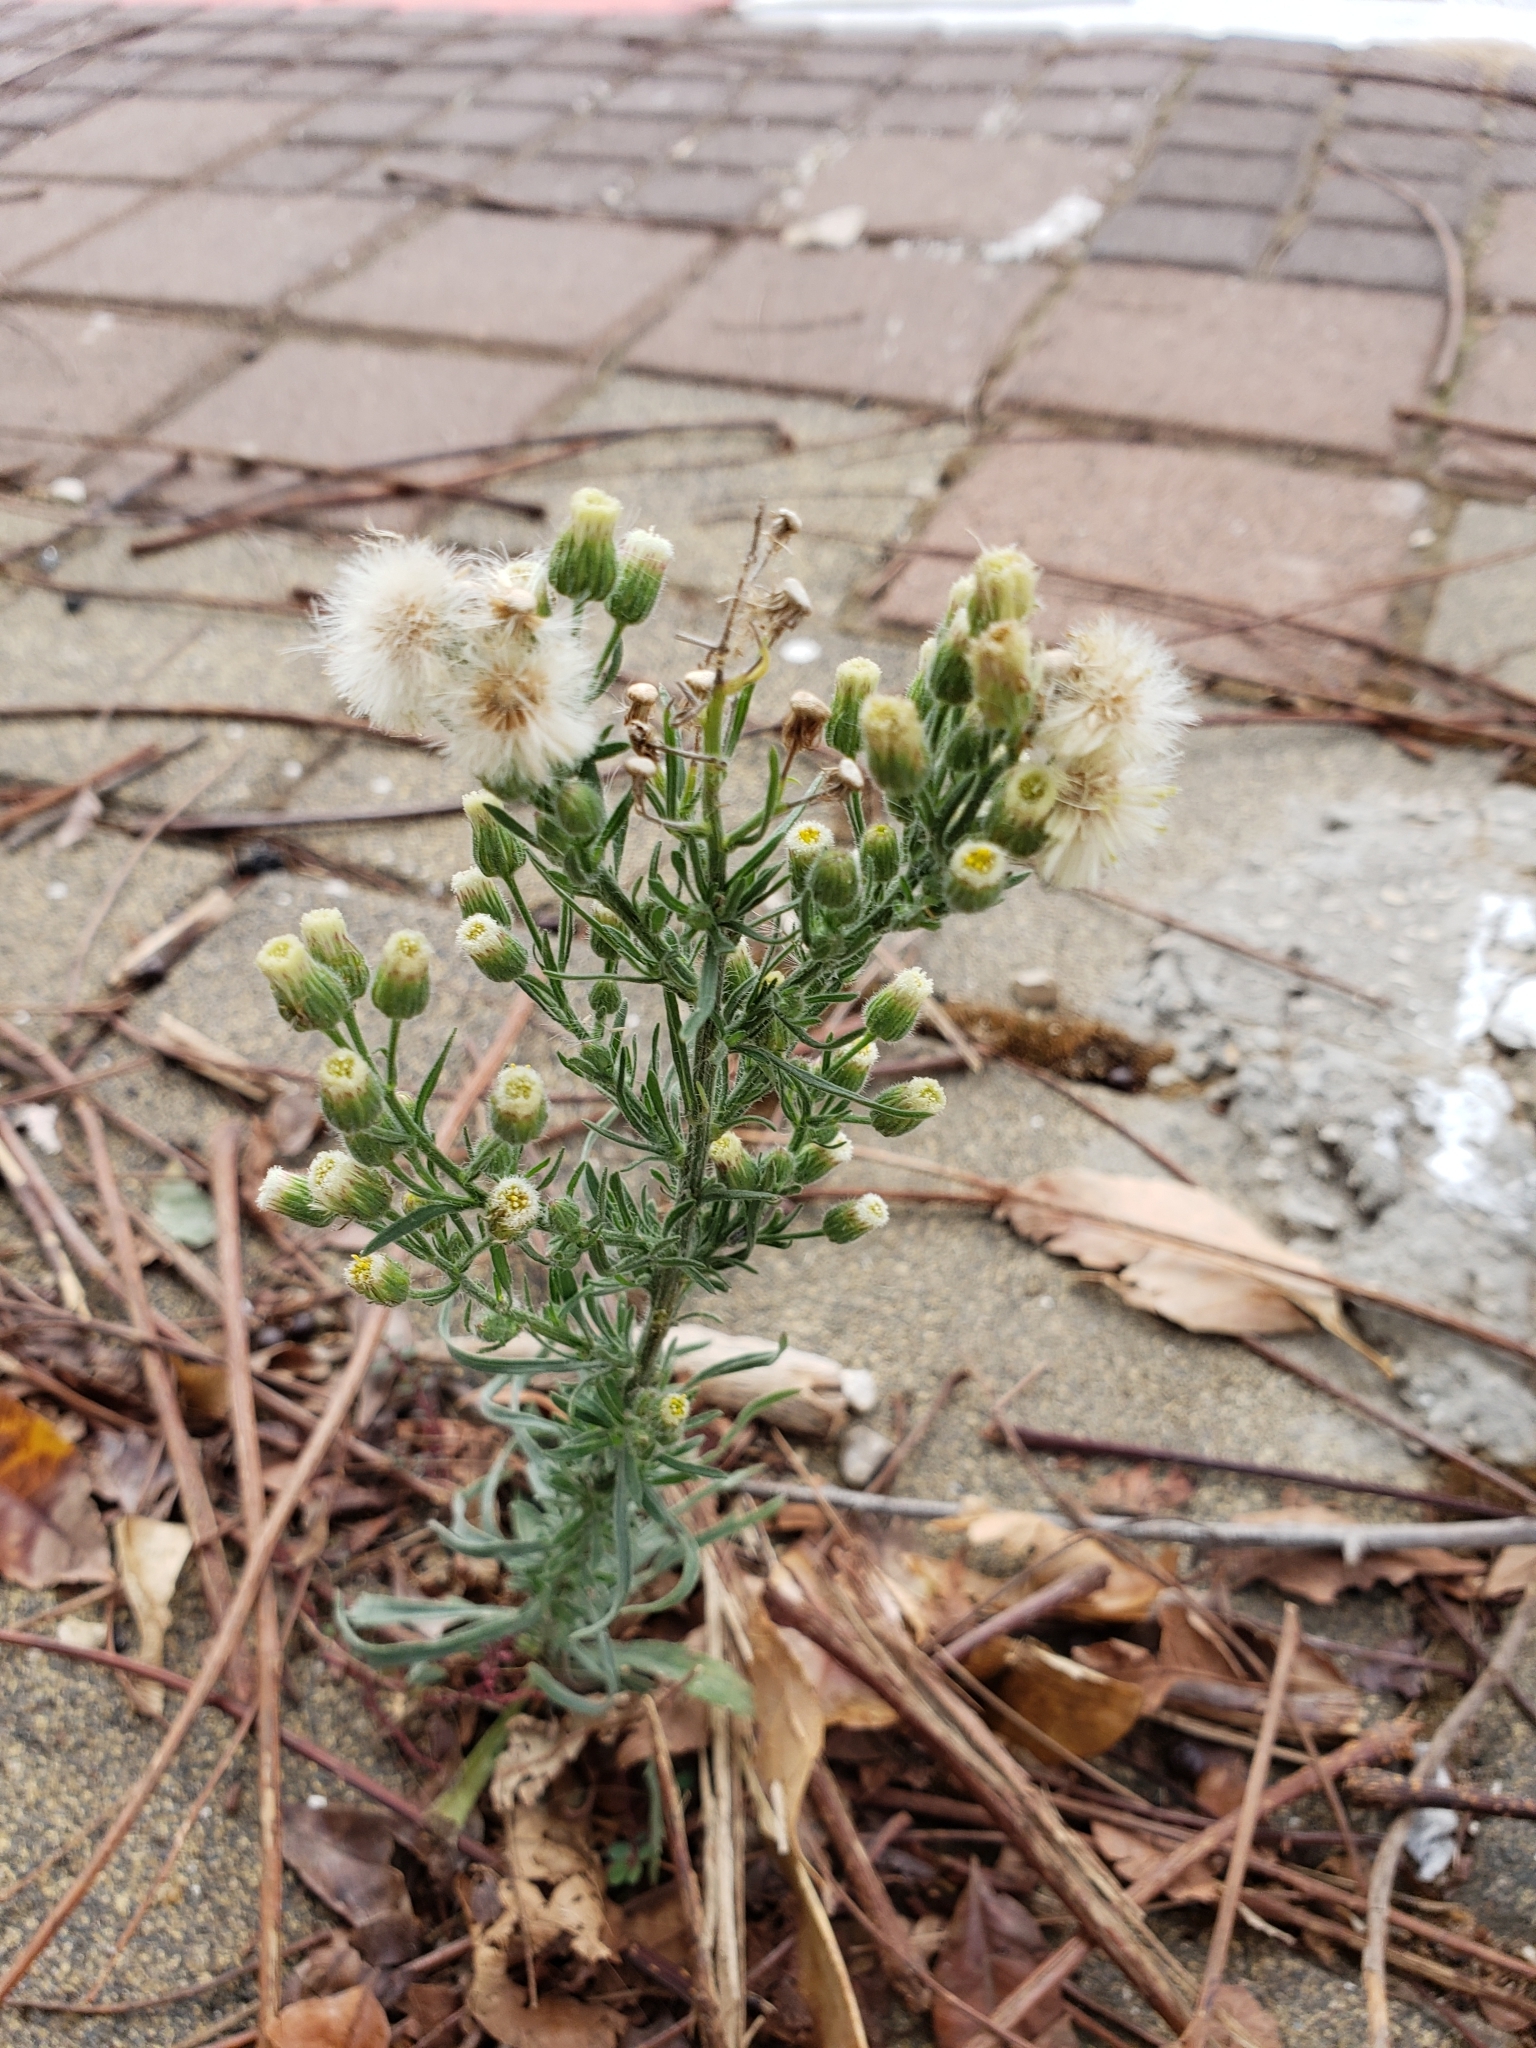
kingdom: Plantae
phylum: Tracheophyta
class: Magnoliopsida
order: Asterales
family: Asteraceae
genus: Erigeron
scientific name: Erigeron bonariensis
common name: Argentine fleabane
